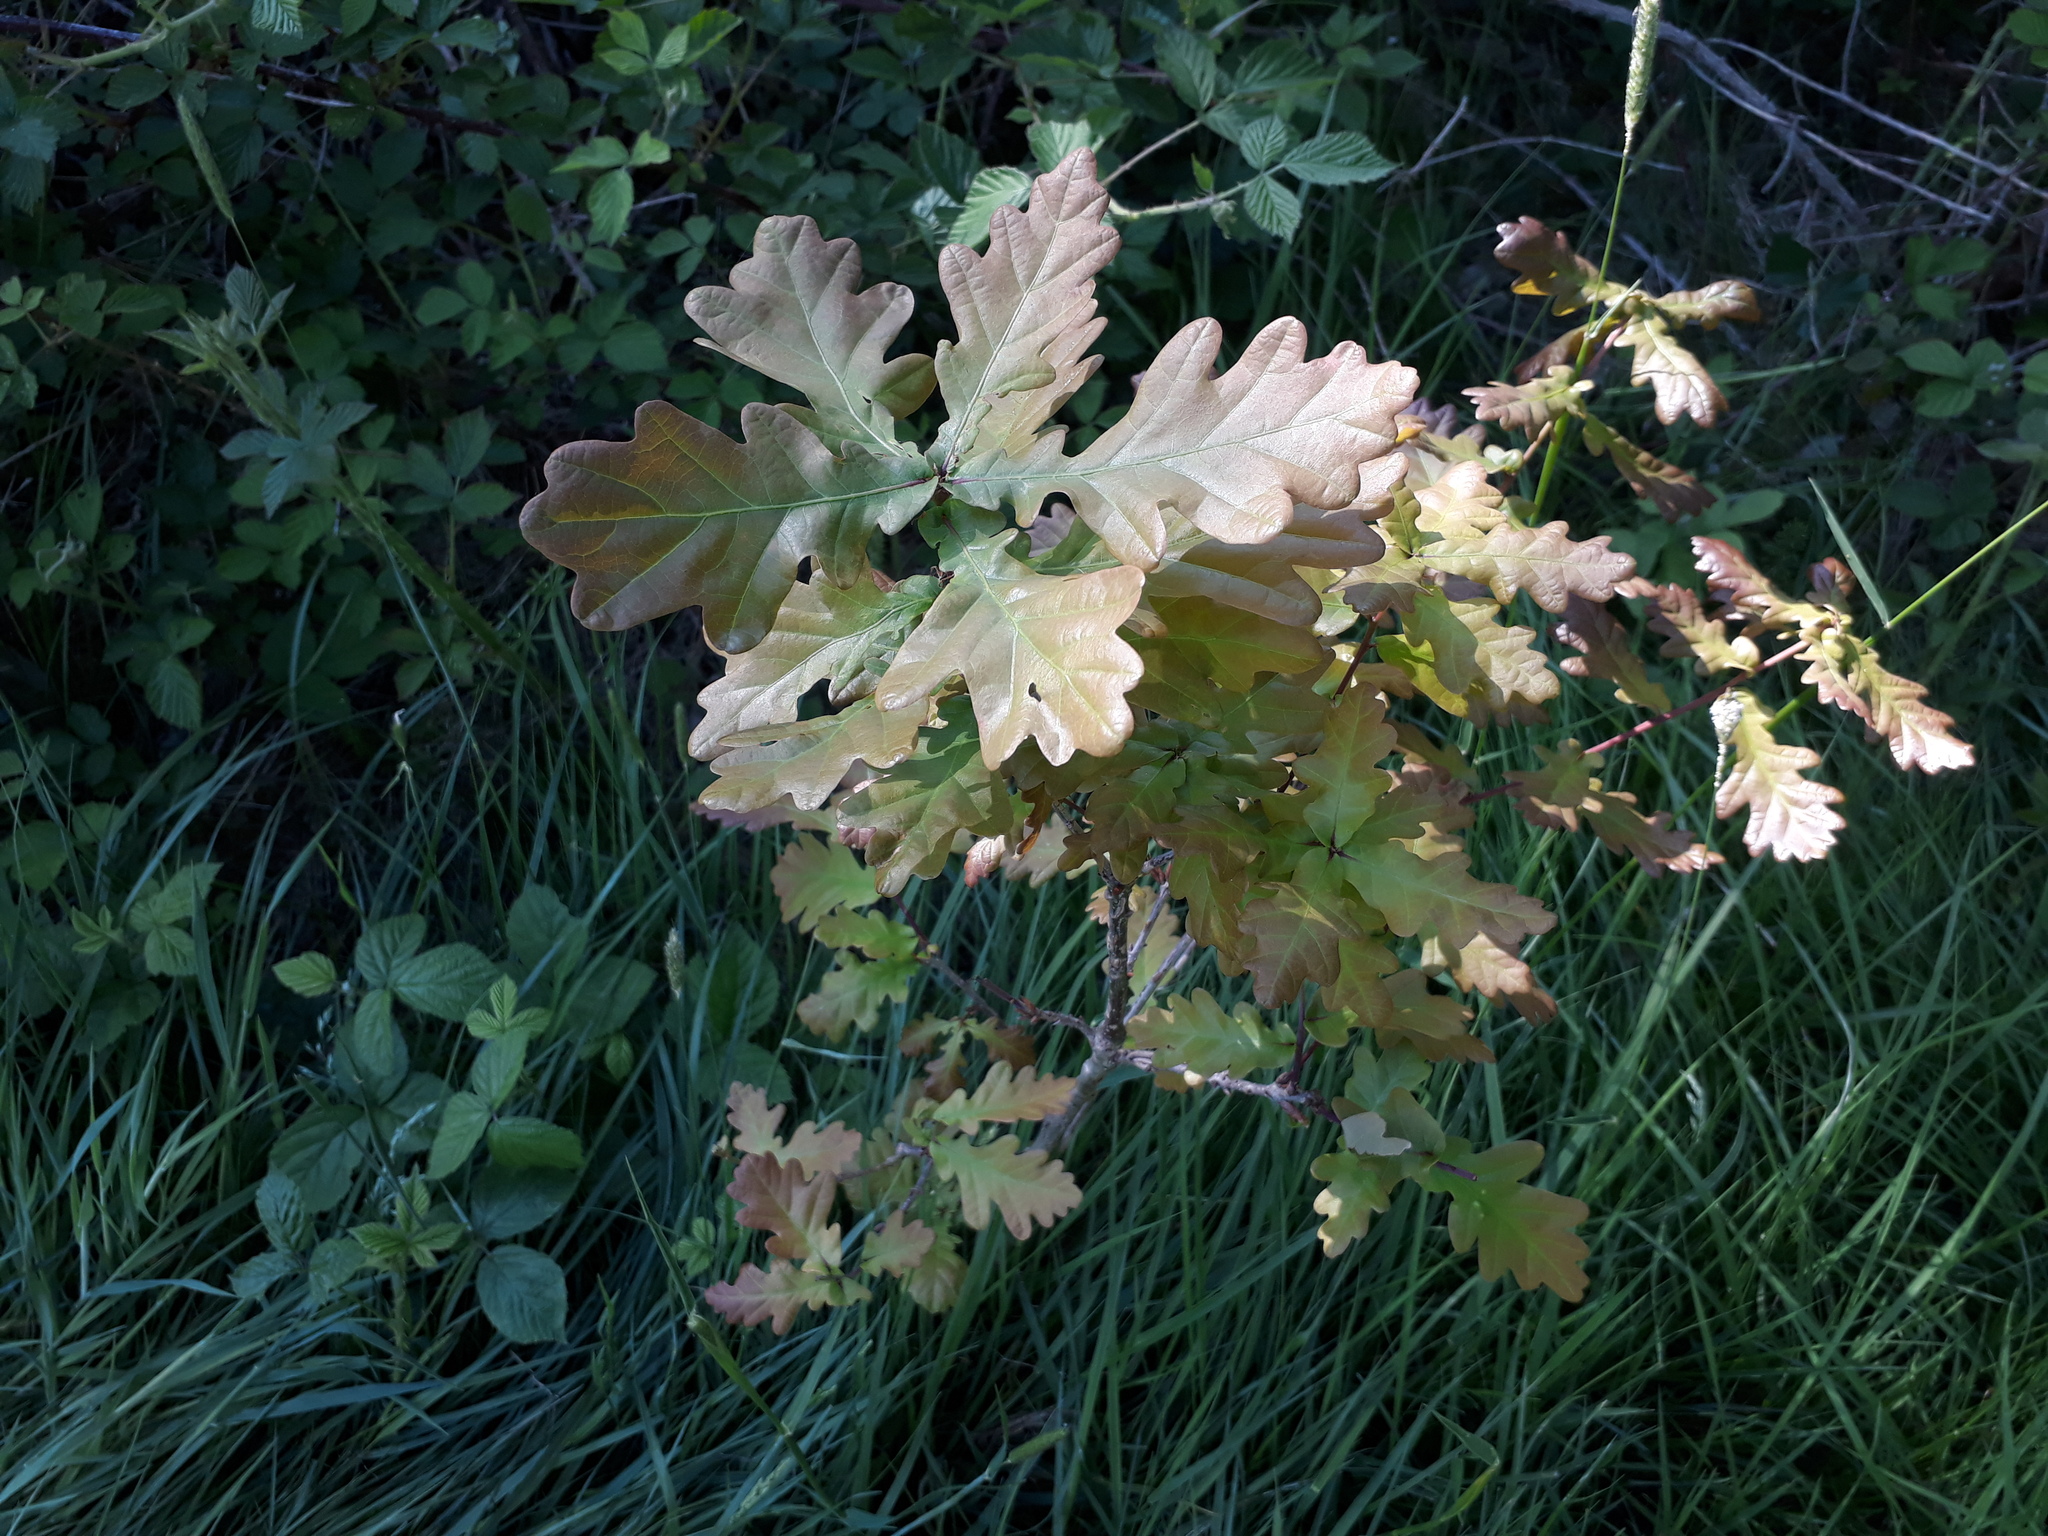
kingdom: Plantae
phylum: Tracheophyta
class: Magnoliopsida
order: Fagales
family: Fagaceae
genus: Quercus
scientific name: Quercus robur
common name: Pedunculate oak
